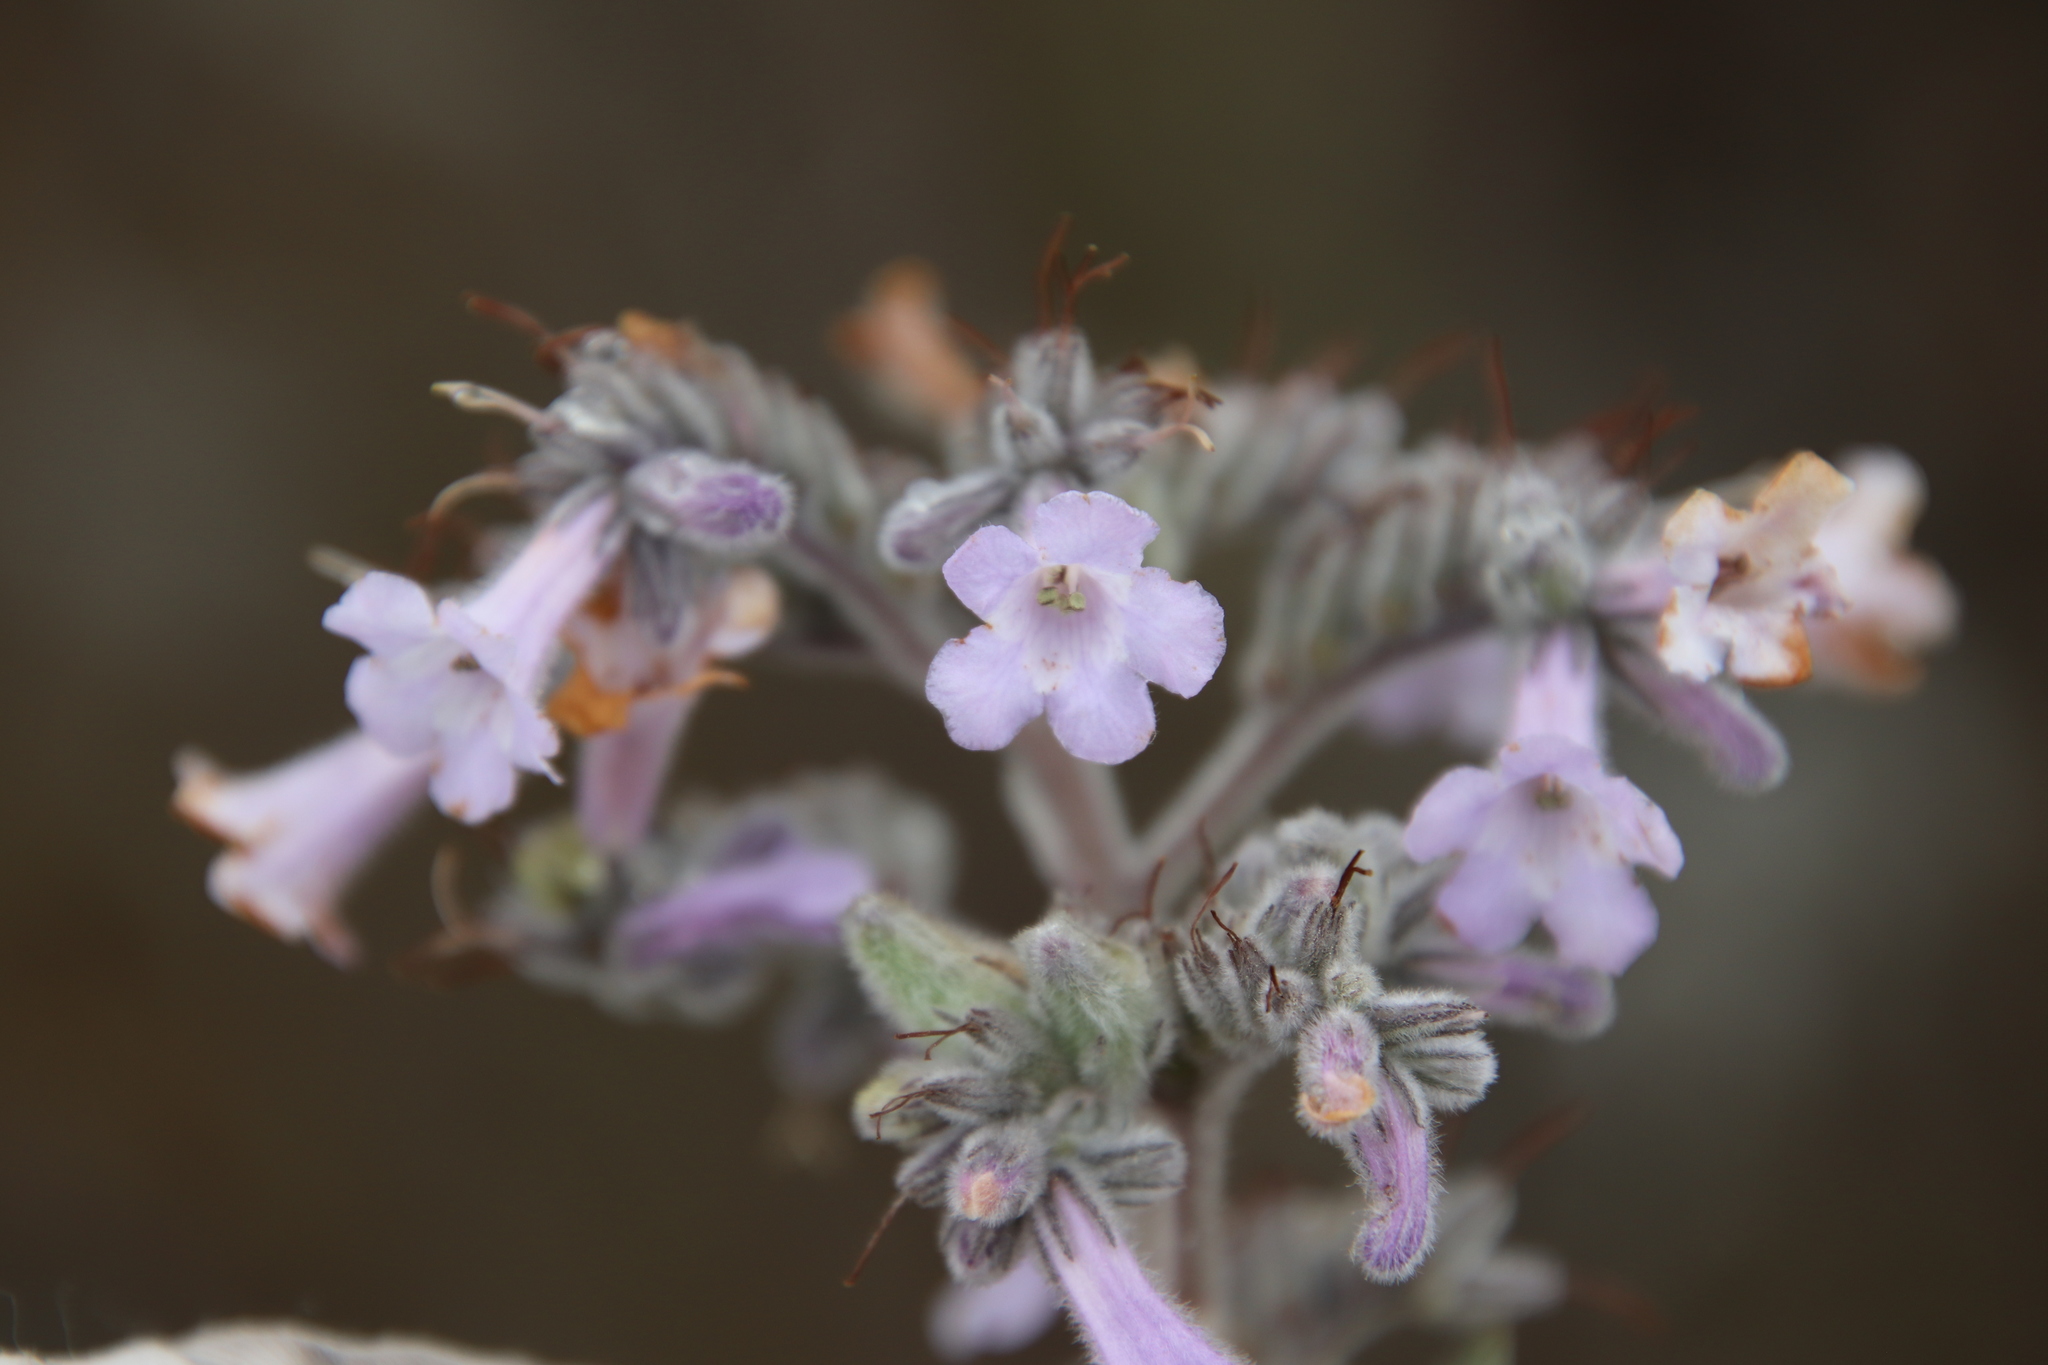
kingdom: Plantae
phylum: Tracheophyta
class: Magnoliopsida
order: Boraginales
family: Namaceae
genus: Eriodictyon
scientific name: Eriodictyon crassifolium
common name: Thick-leaf yerba-santa
